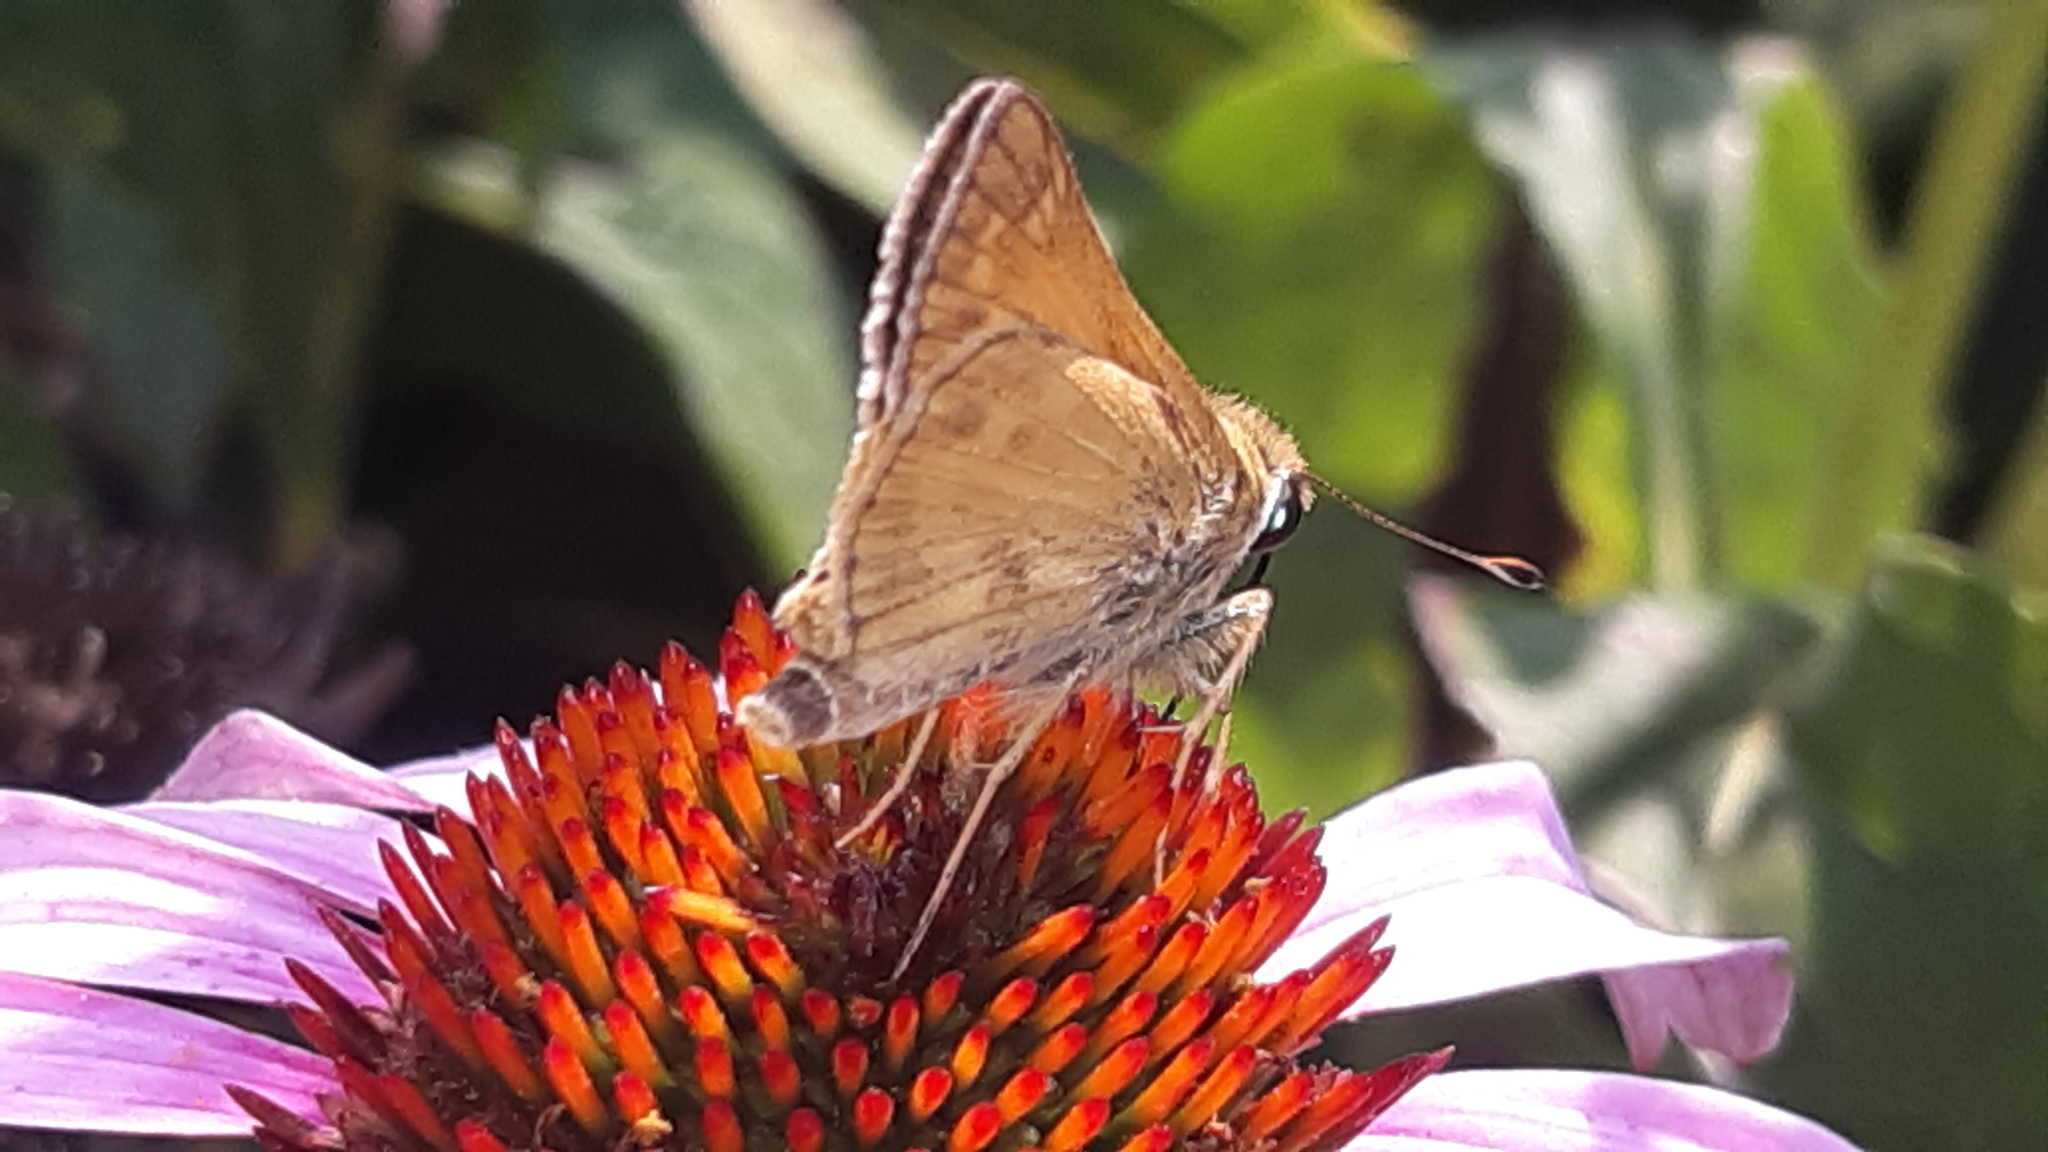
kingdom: Animalia
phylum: Arthropoda
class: Insecta
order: Lepidoptera
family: Hesperiidae
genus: Atalopedes
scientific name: Atalopedes
